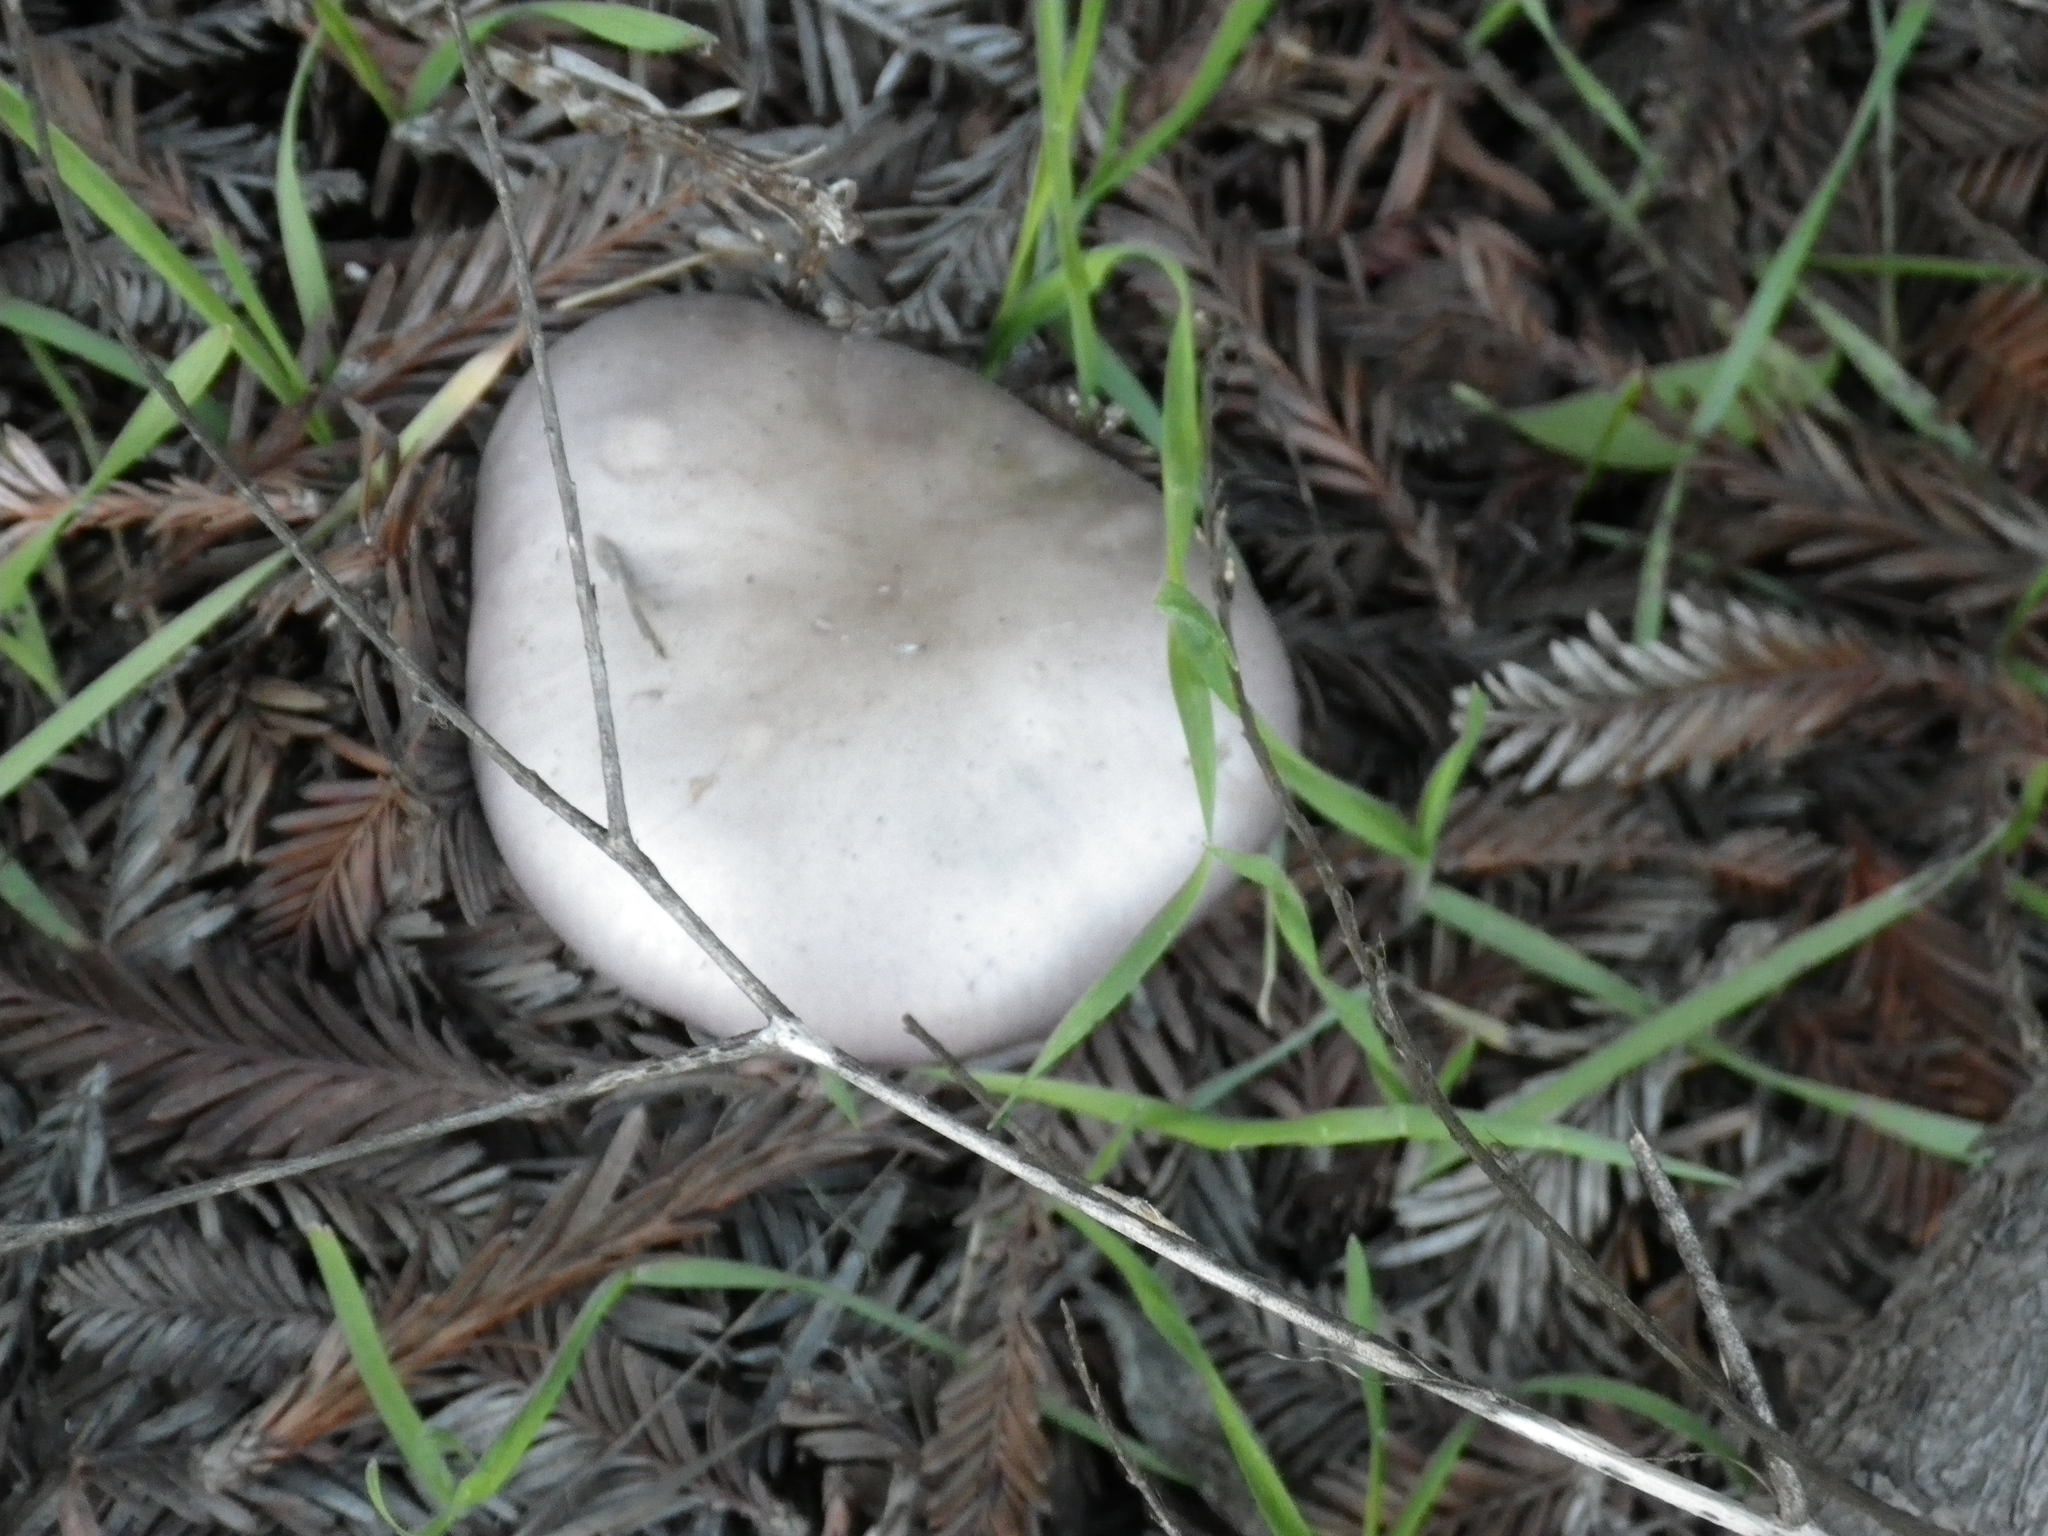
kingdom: Fungi
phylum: Basidiomycota
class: Agaricomycetes
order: Agaricales
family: Tricholomataceae
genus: Collybia
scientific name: Collybia
